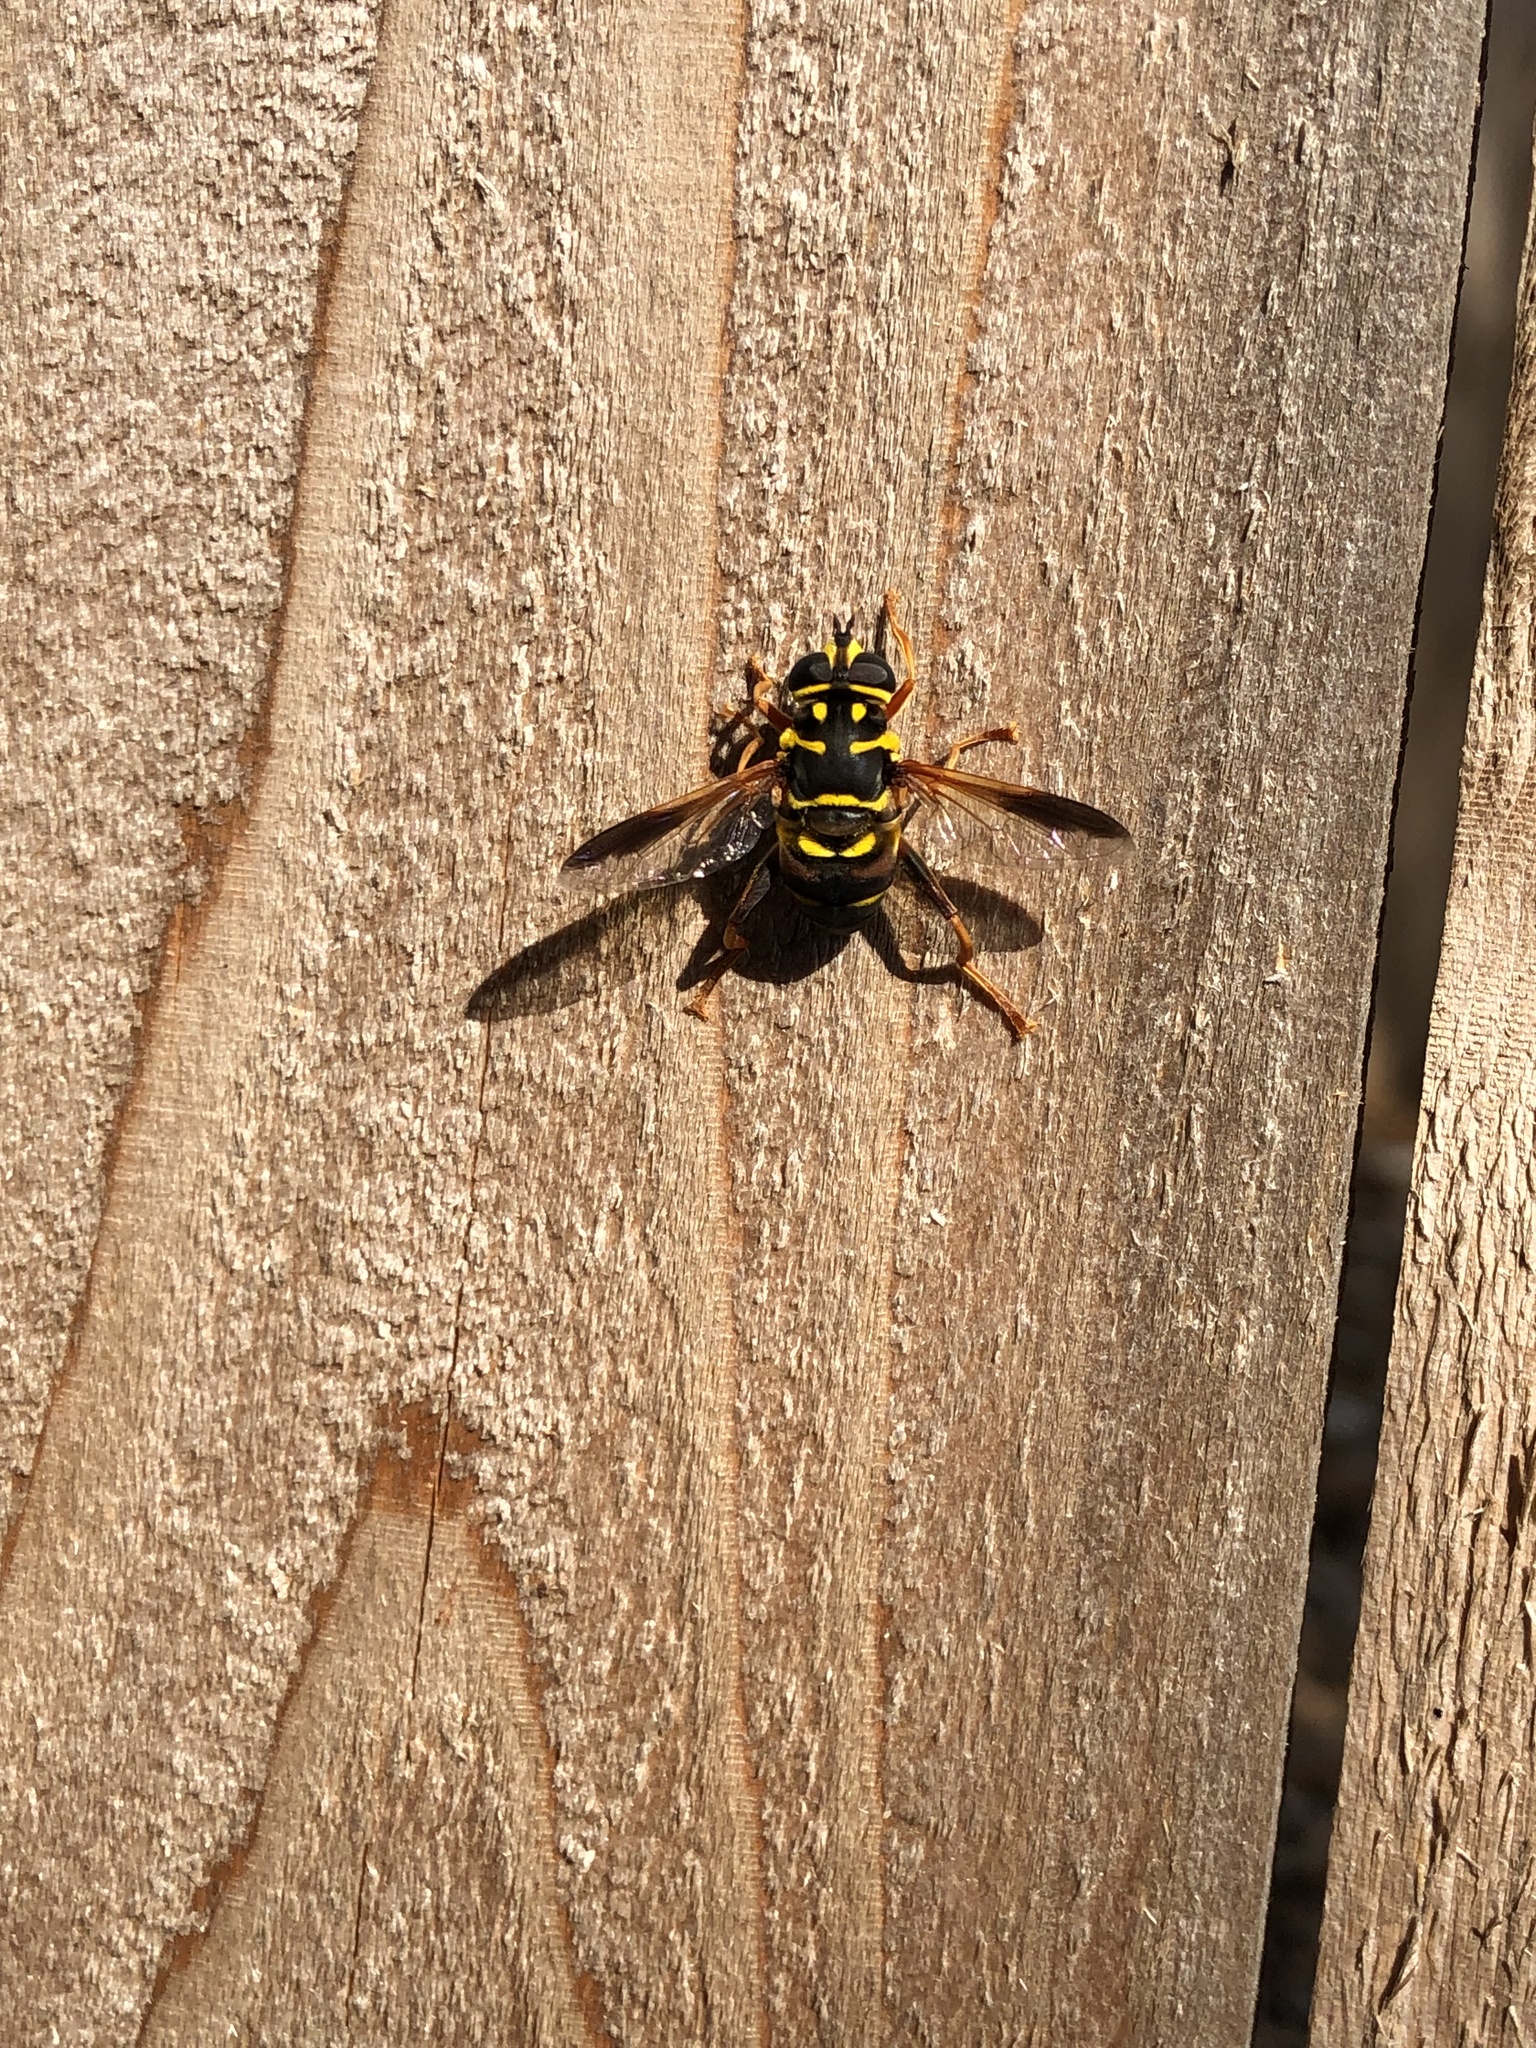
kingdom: Animalia
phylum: Arthropoda
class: Insecta
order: Diptera
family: Syrphidae
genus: Meromacrus
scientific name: Meromacrus acutus
